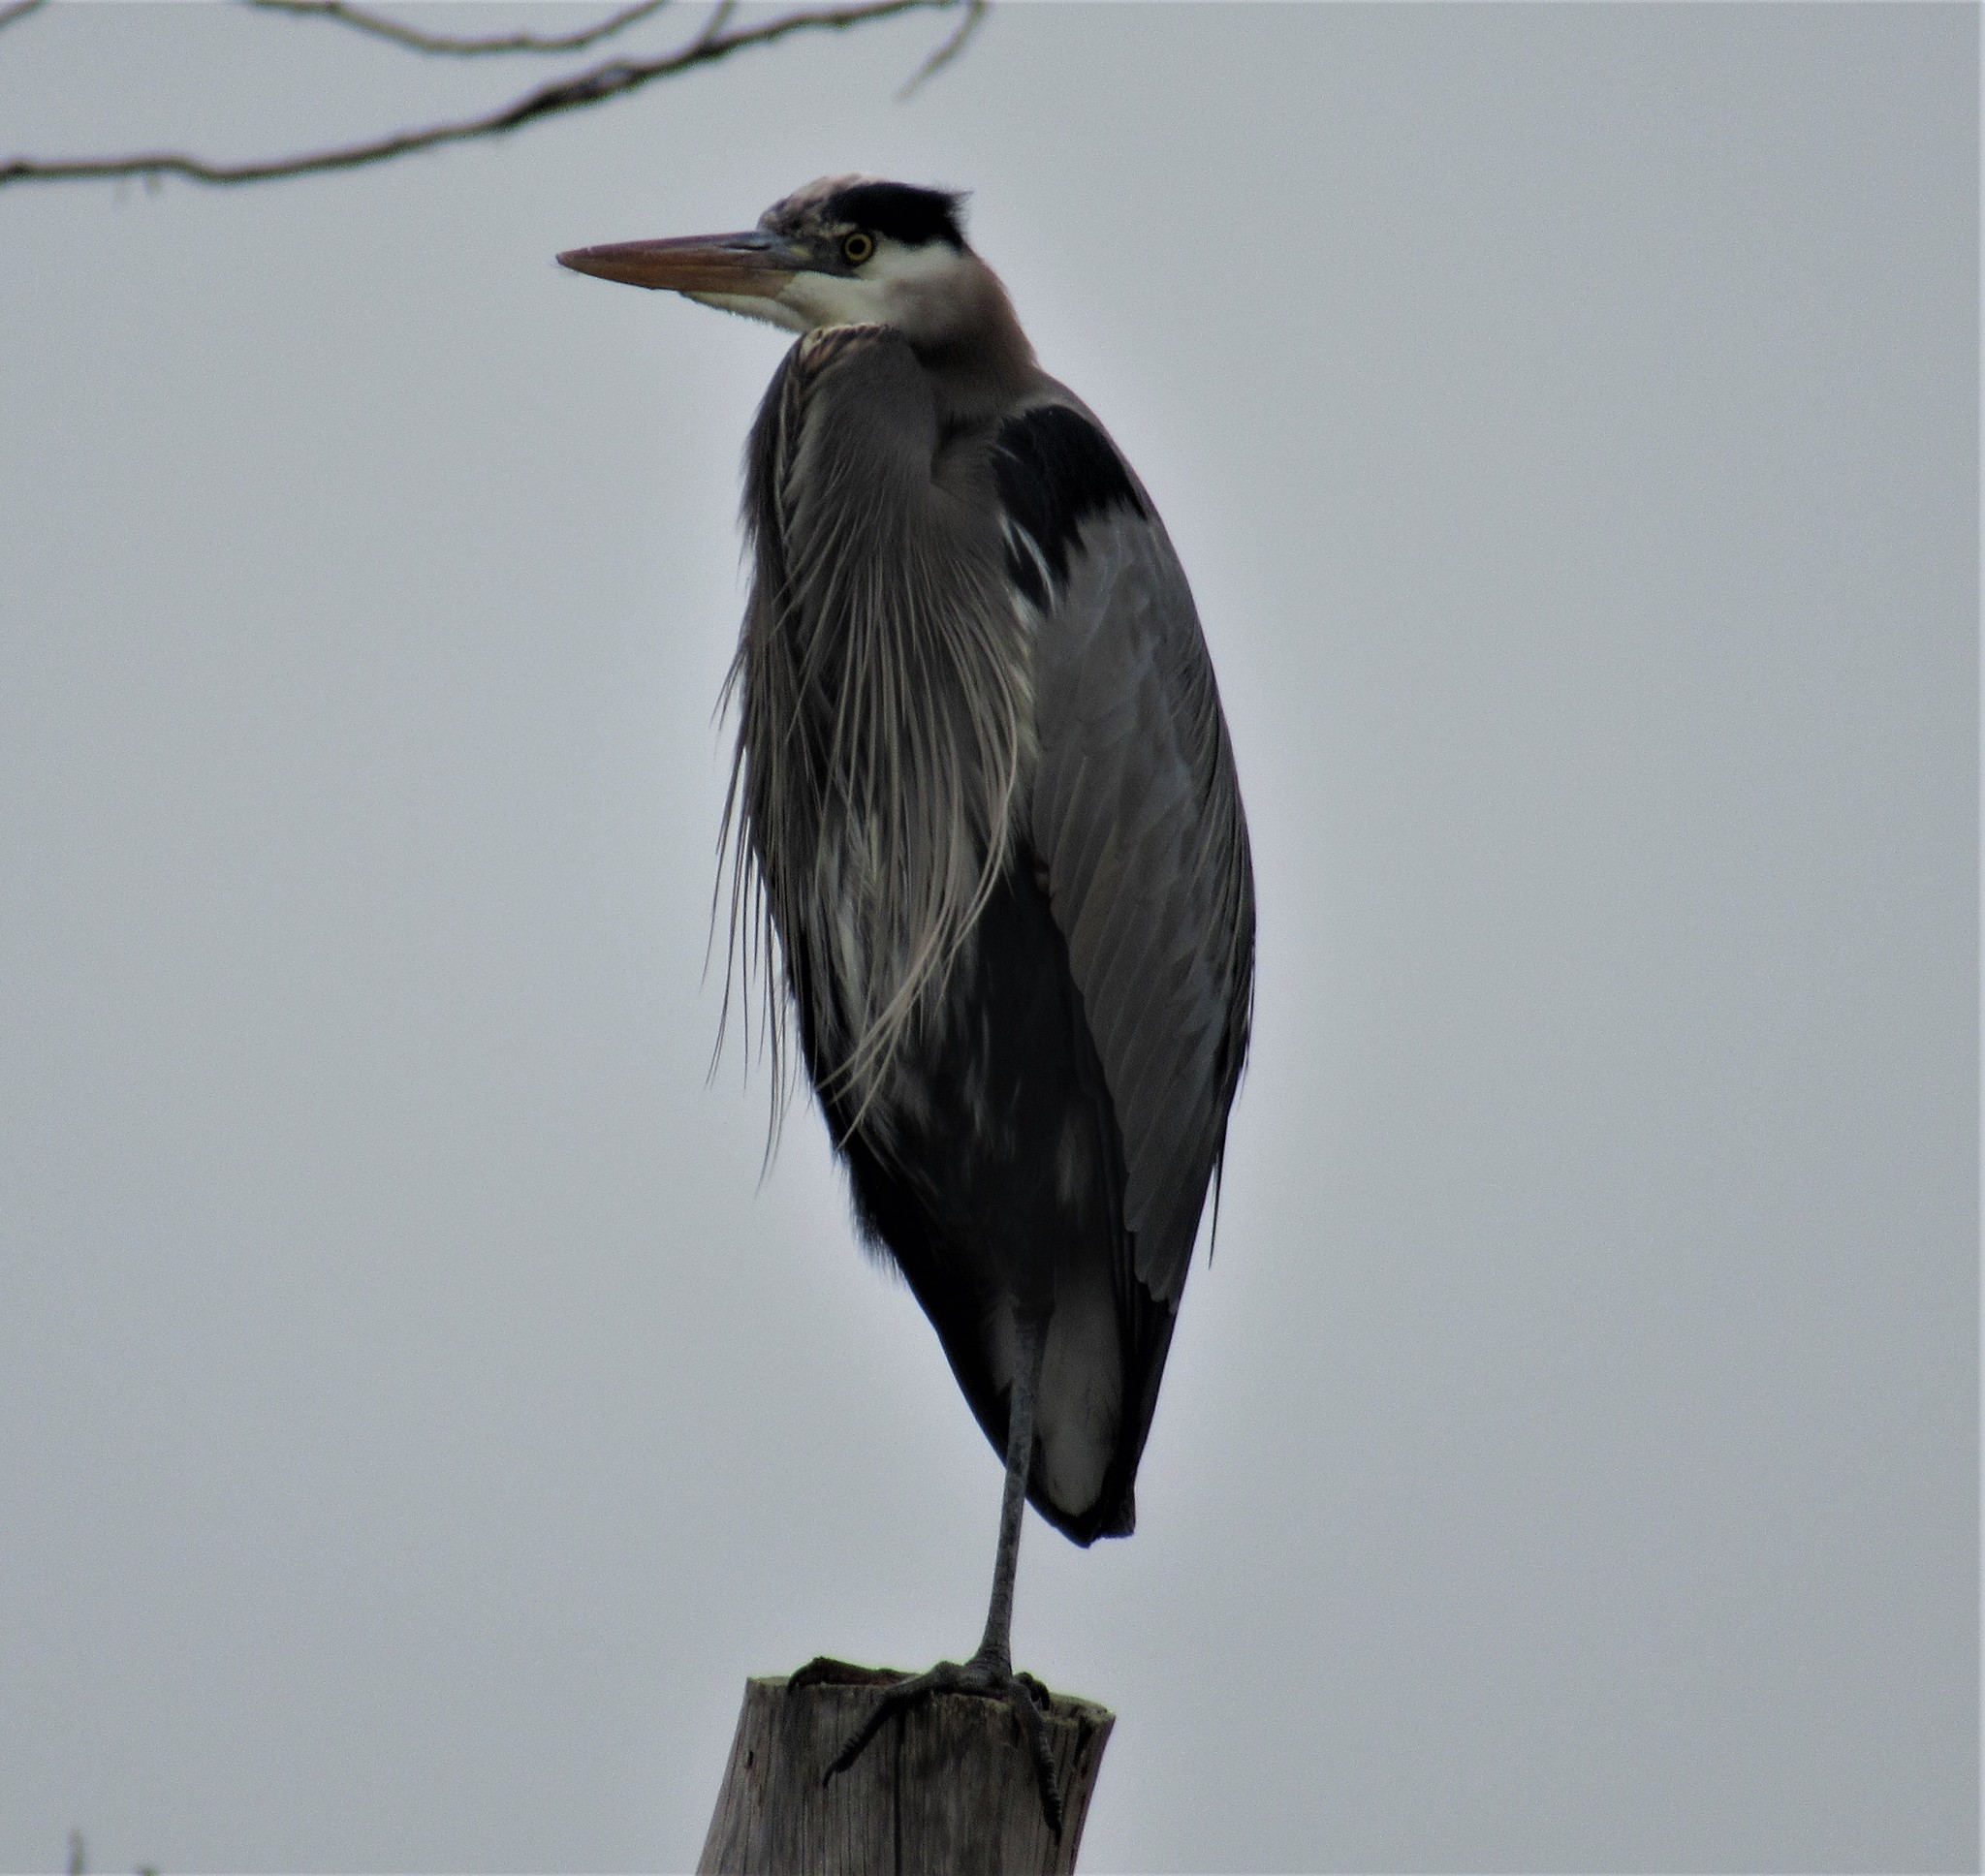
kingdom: Animalia
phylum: Chordata
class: Aves
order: Pelecaniformes
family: Ardeidae
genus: Ardea
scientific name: Ardea herodias
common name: Great blue heron
